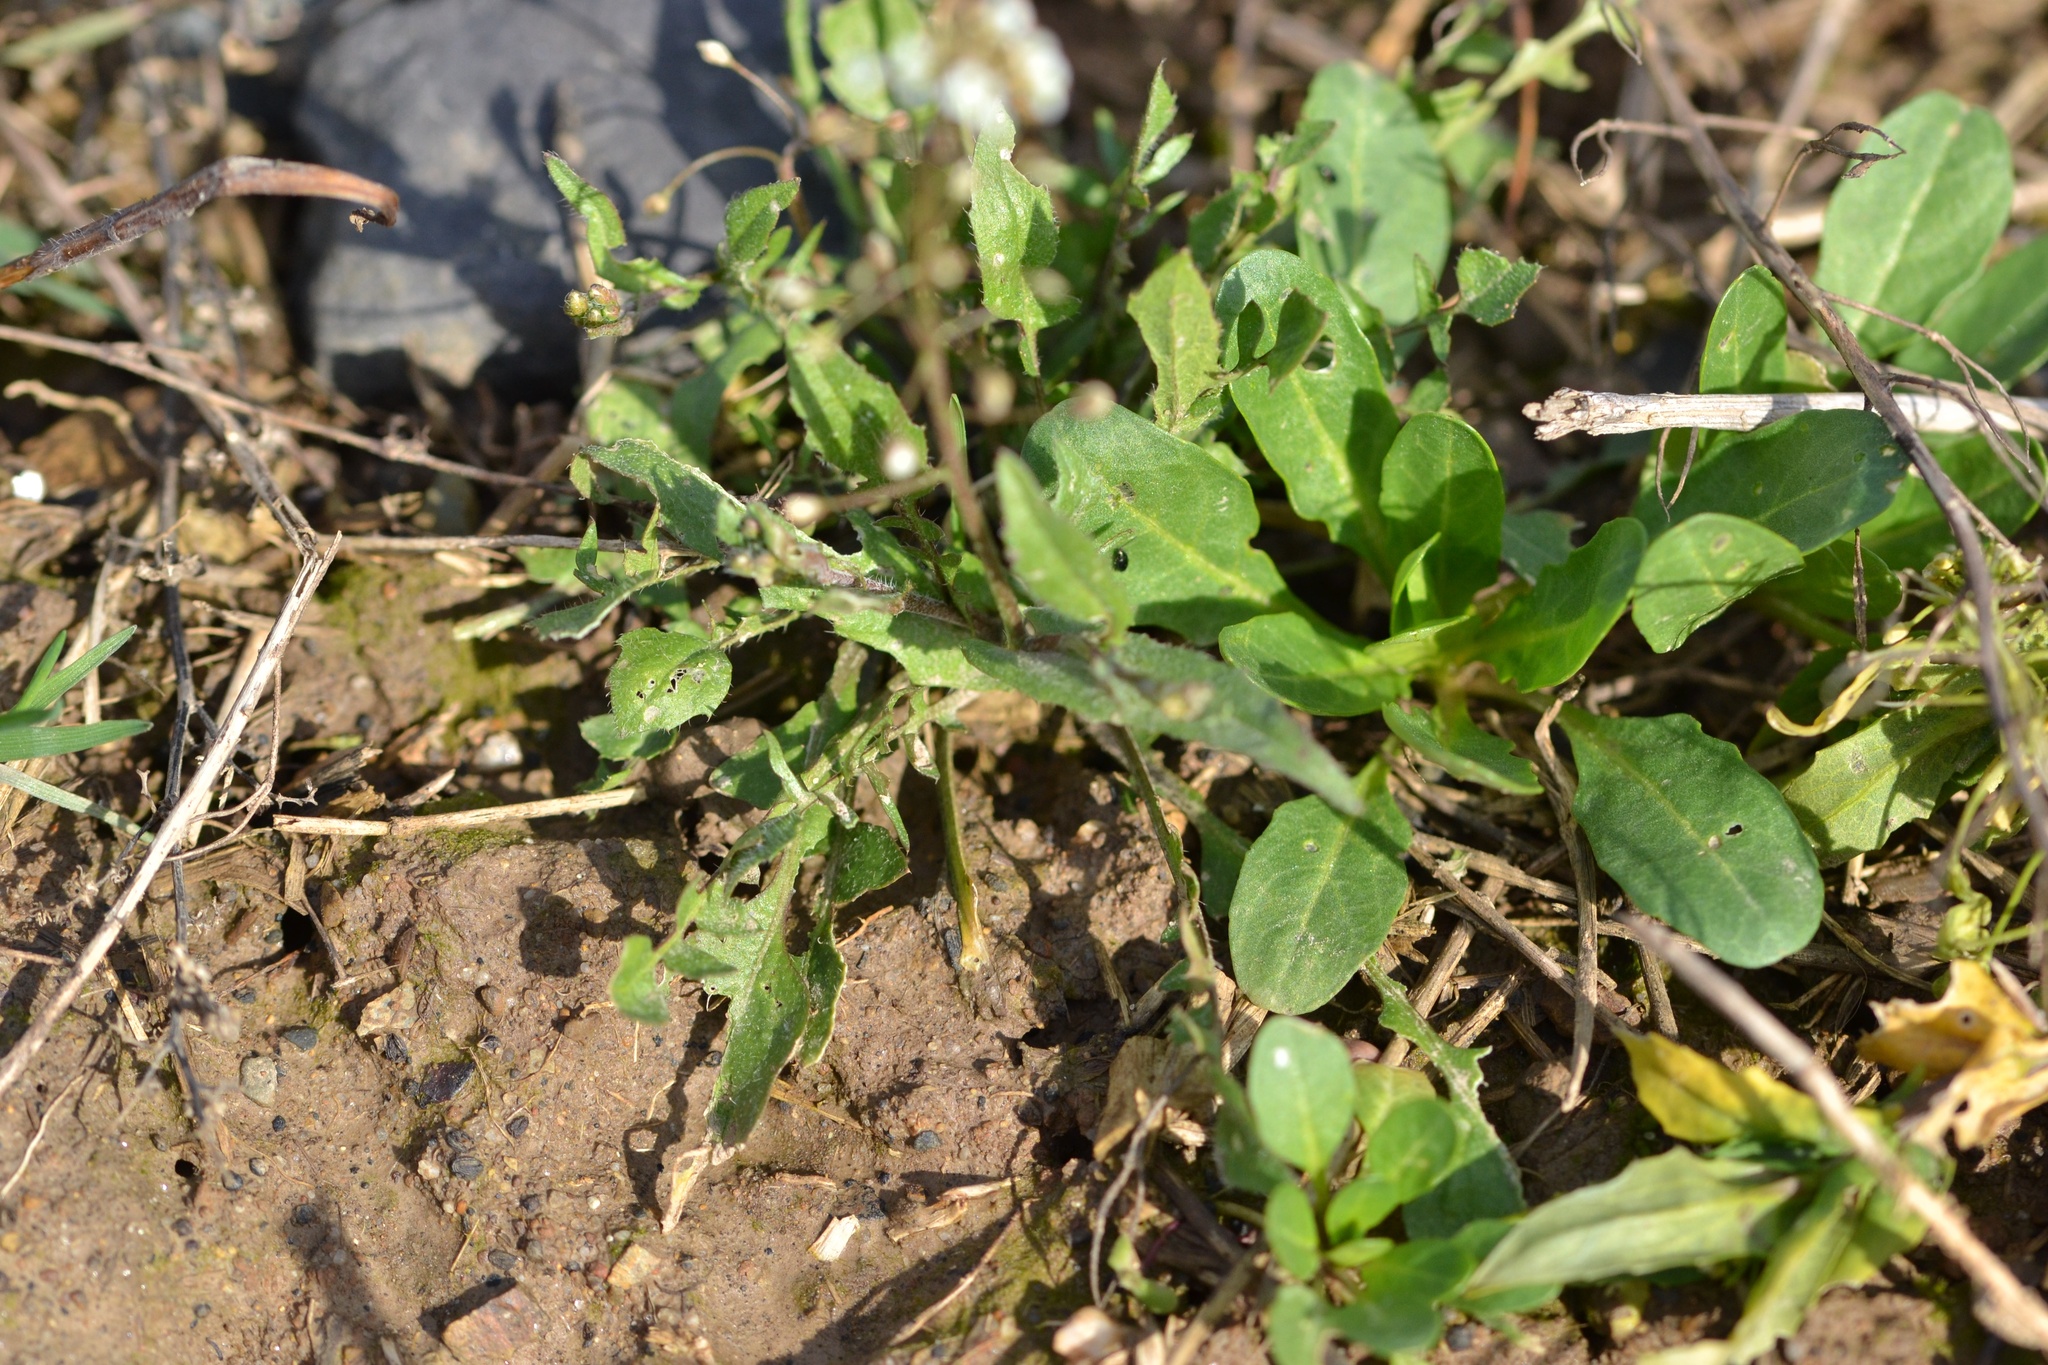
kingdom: Plantae
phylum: Tracheophyta
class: Magnoliopsida
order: Brassicales
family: Brassicaceae
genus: Capsella
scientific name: Capsella bursa-pastoris
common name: Shepherd's purse
